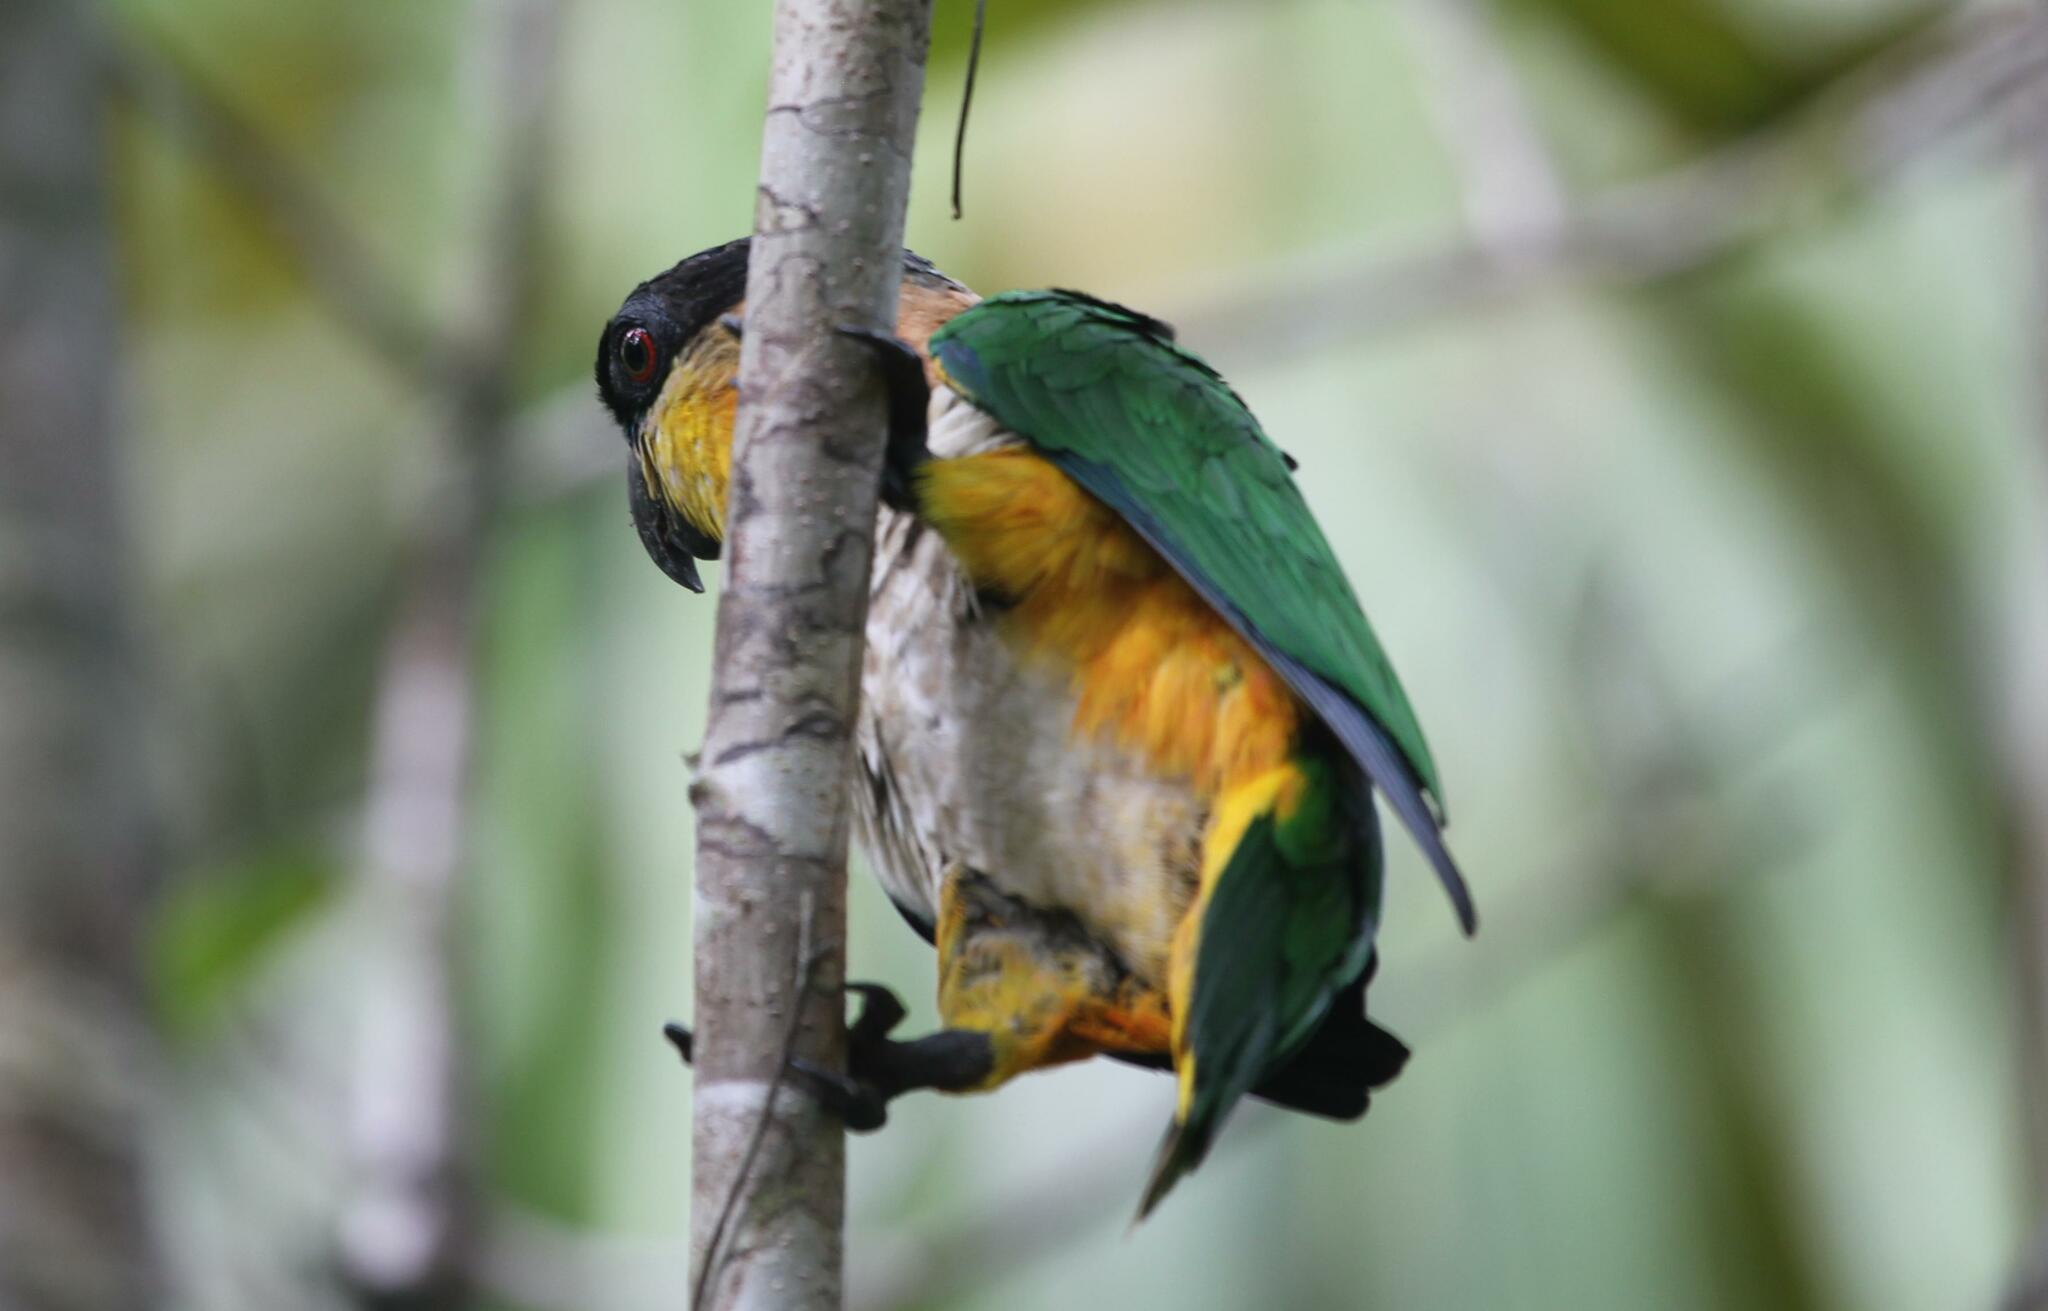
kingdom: Animalia
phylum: Chordata
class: Aves
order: Psittaciformes
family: Psittacidae
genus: Pionites
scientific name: Pionites melanocephalus
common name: Black-headed parrot
